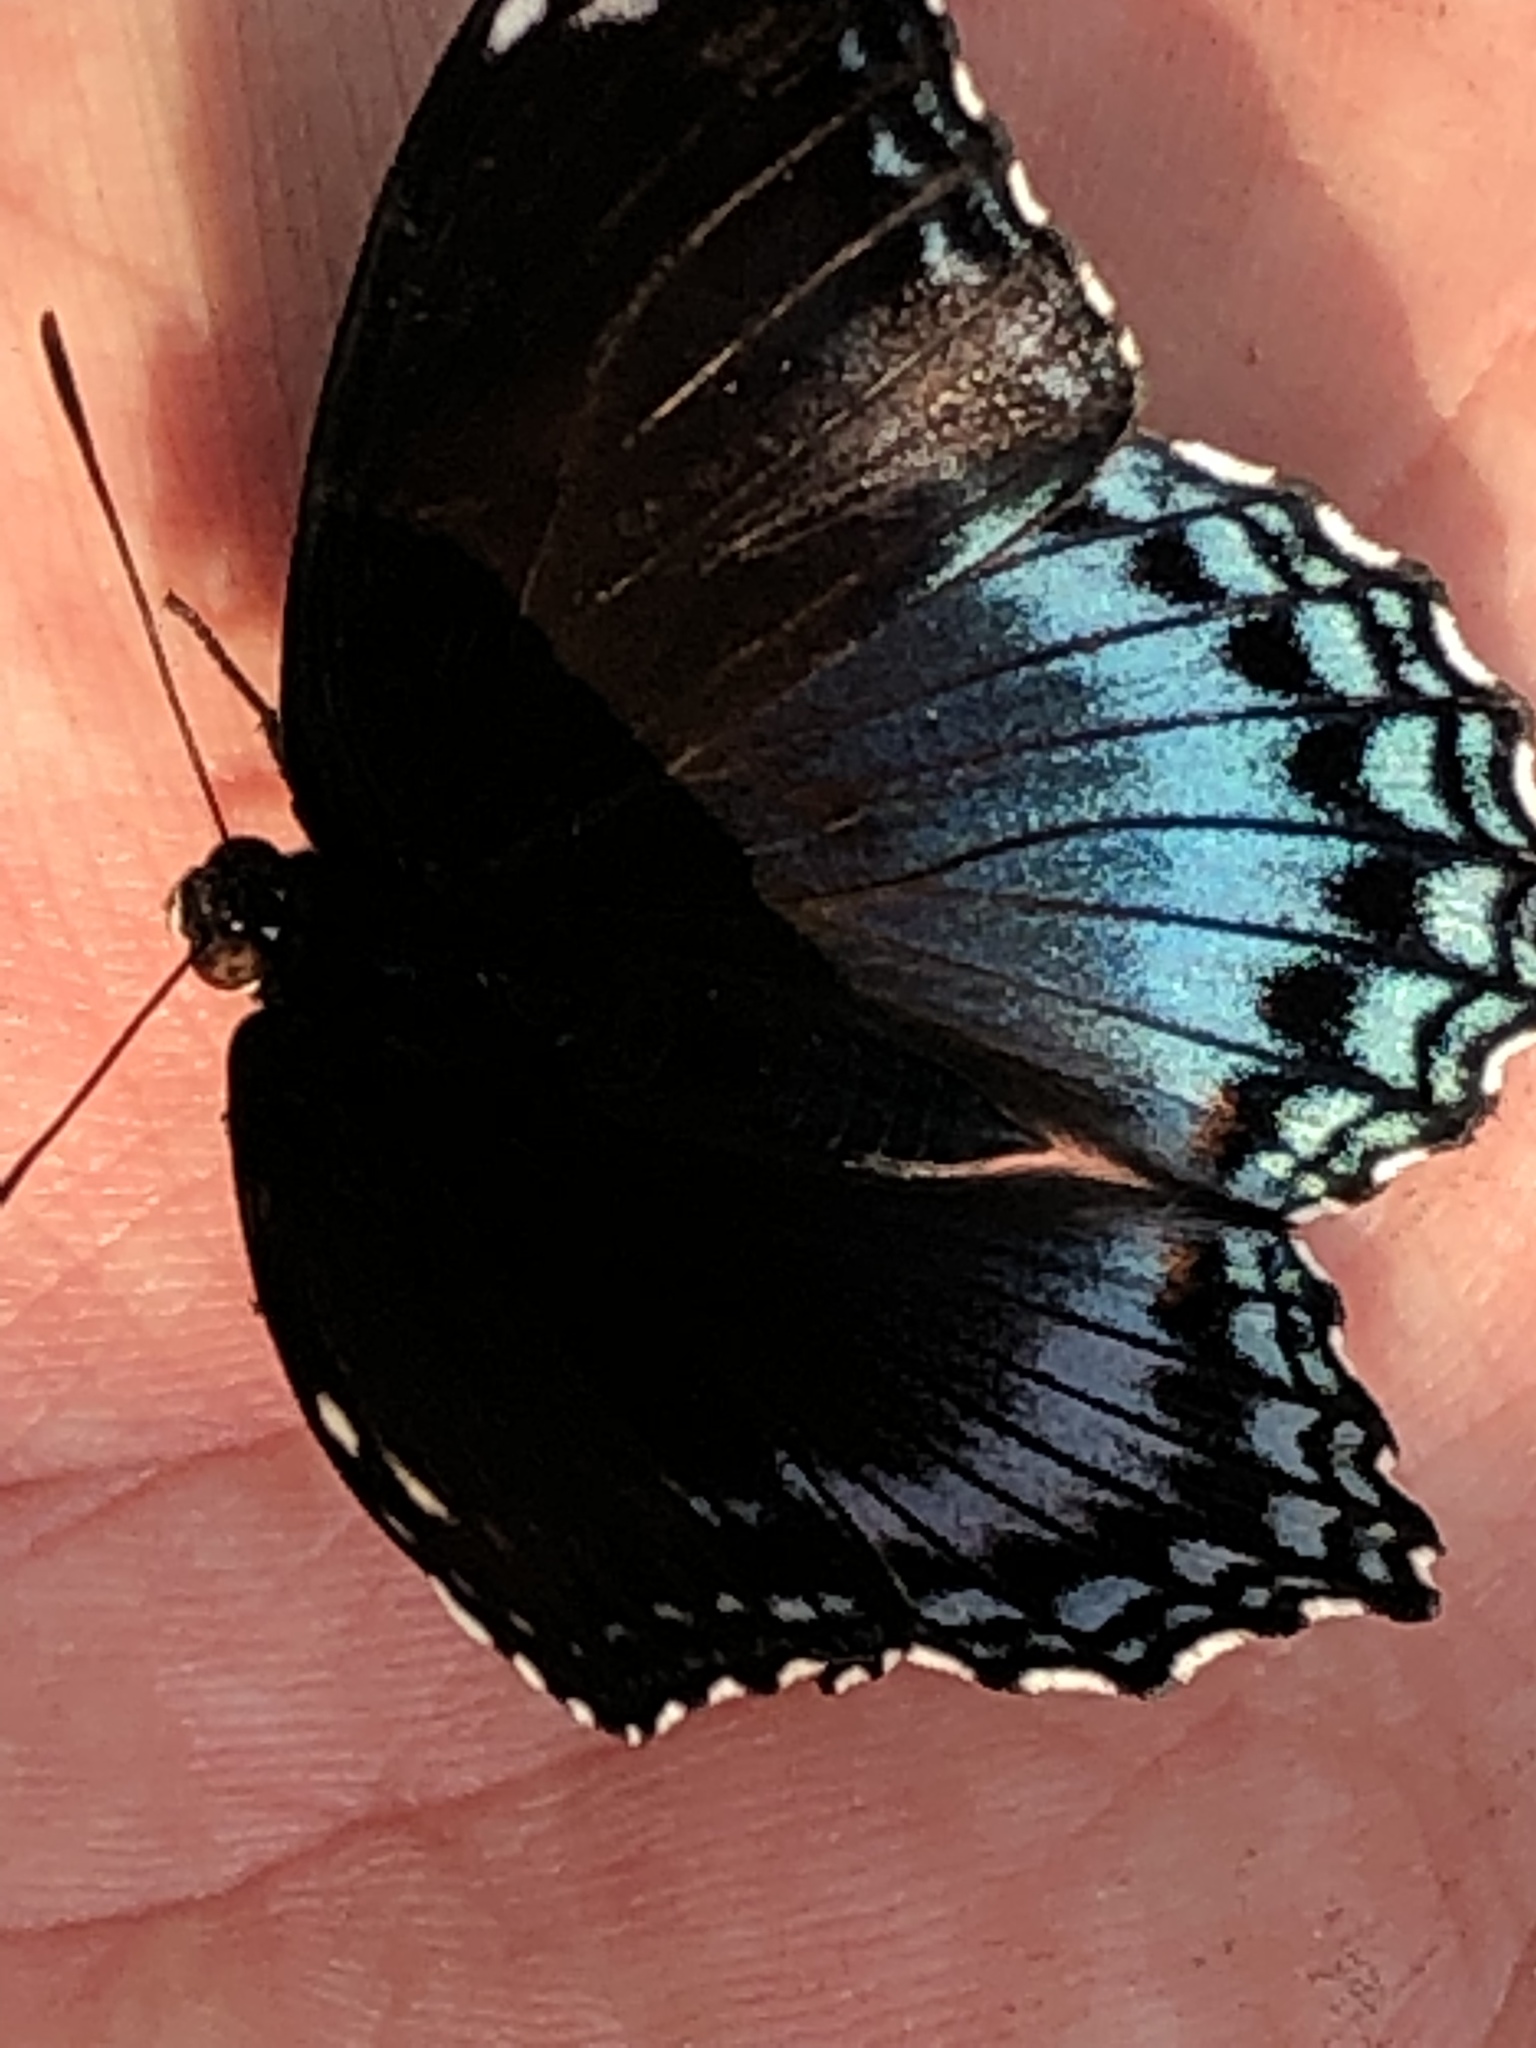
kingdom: Animalia
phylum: Arthropoda
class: Insecta
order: Lepidoptera
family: Nymphalidae
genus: Limenitis
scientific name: Limenitis astyanax
